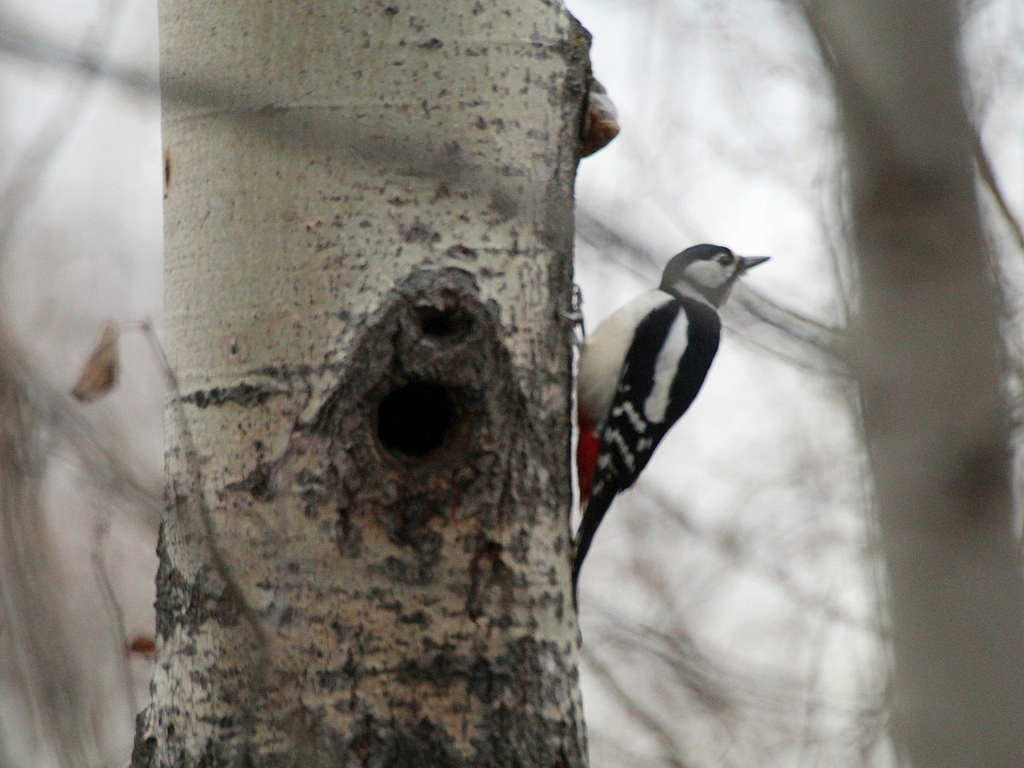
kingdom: Animalia
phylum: Chordata
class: Aves
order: Piciformes
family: Picidae
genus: Dendrocopos
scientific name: Dendrocopos major
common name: Great spotted woodpecker
